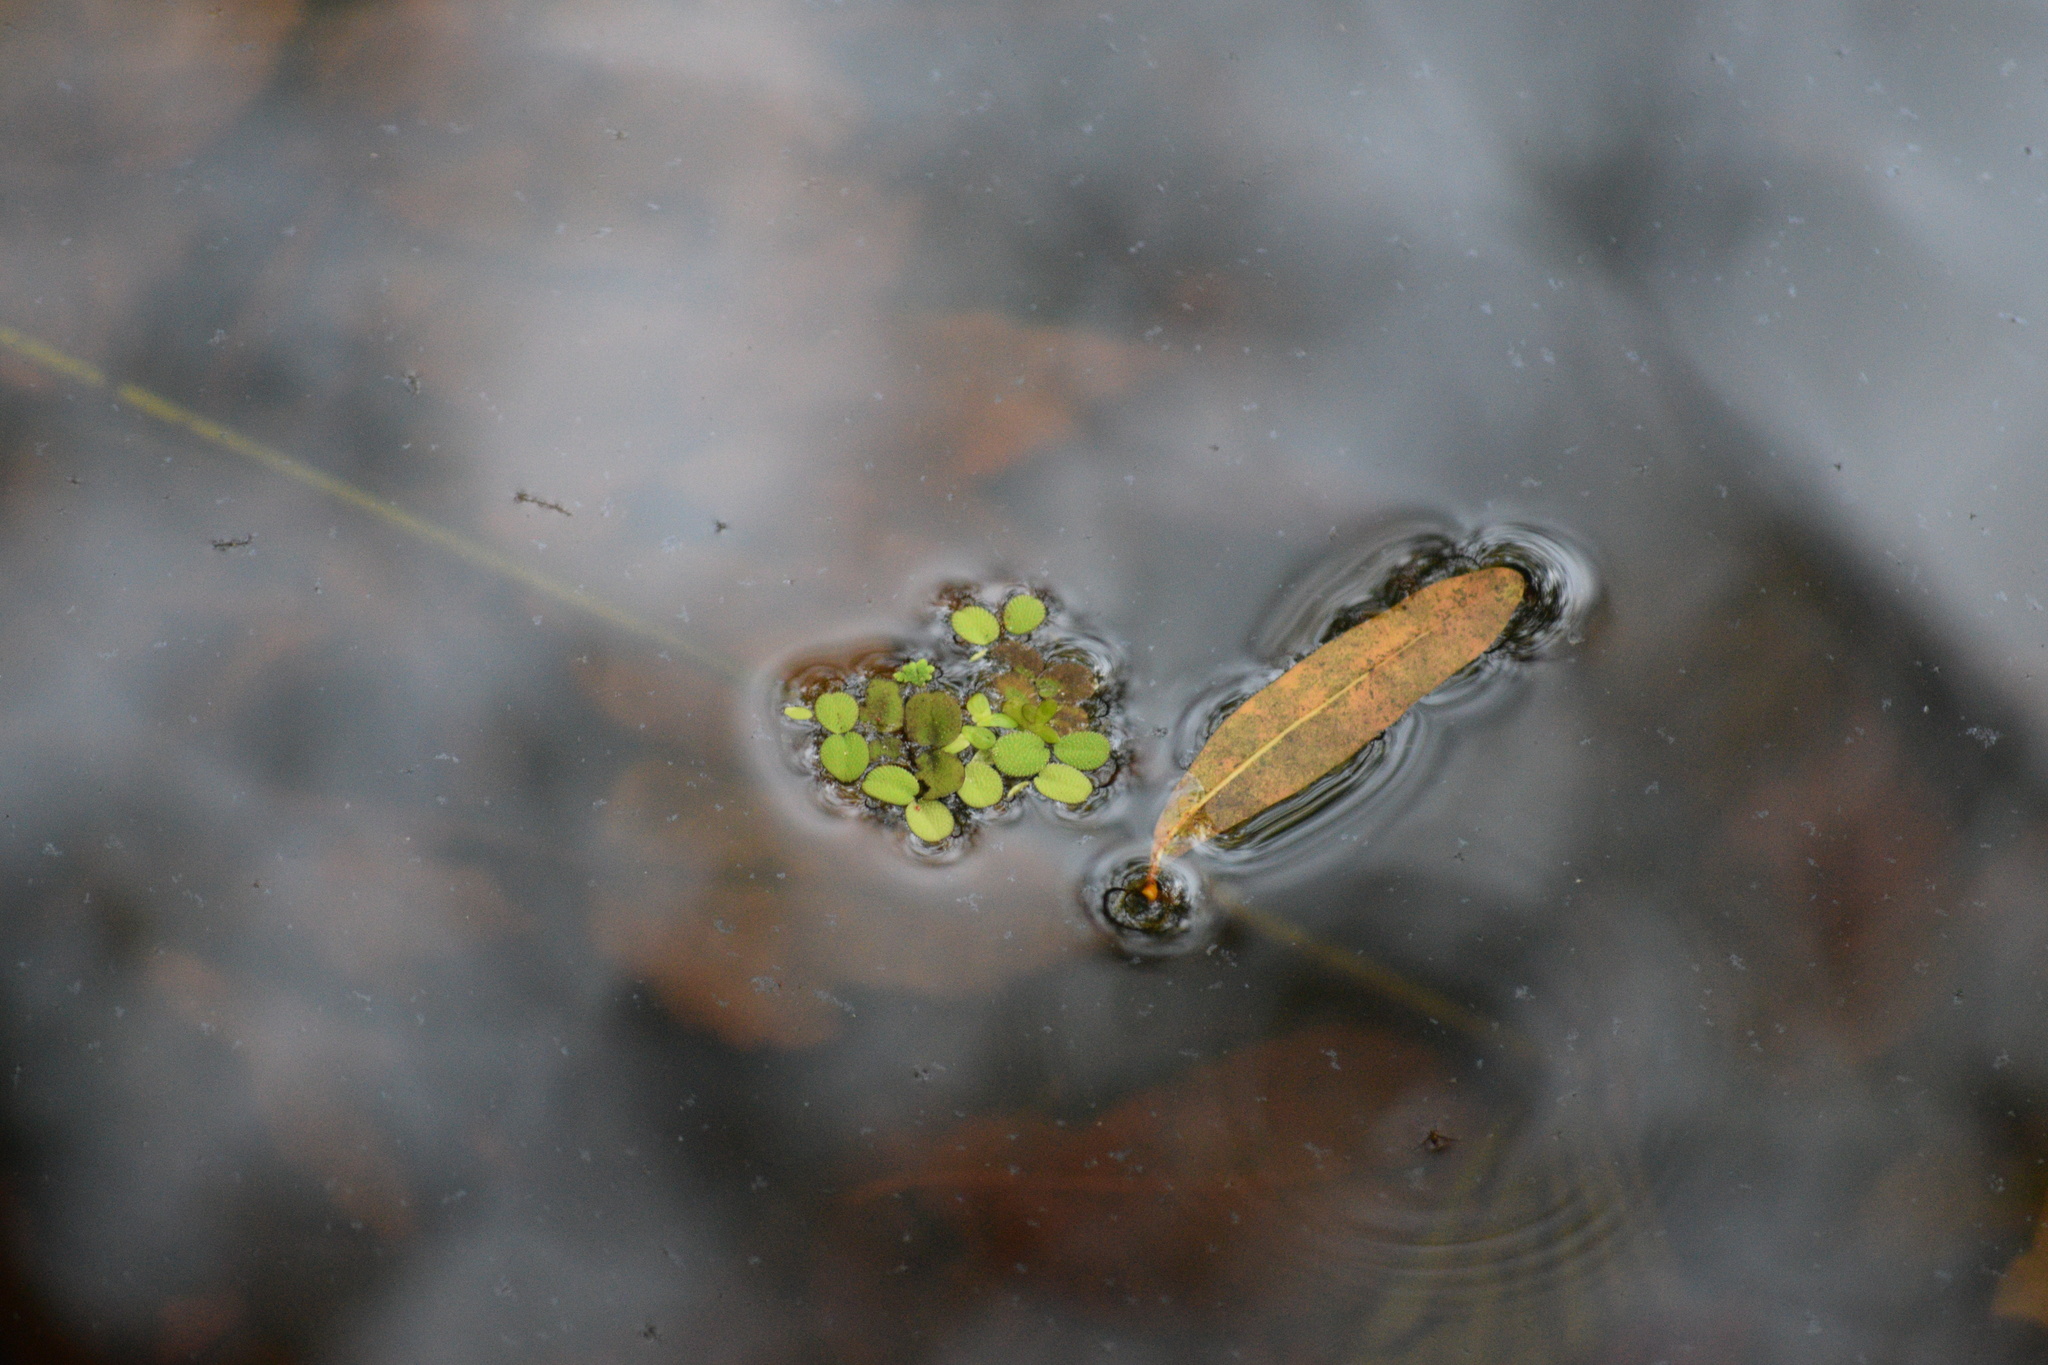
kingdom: Plantae
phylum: Tracheophyta
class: Polypodiopsida
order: Salviniales
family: Salviniaceae
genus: Salvinia
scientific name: Salvinia minima
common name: Water spangles
